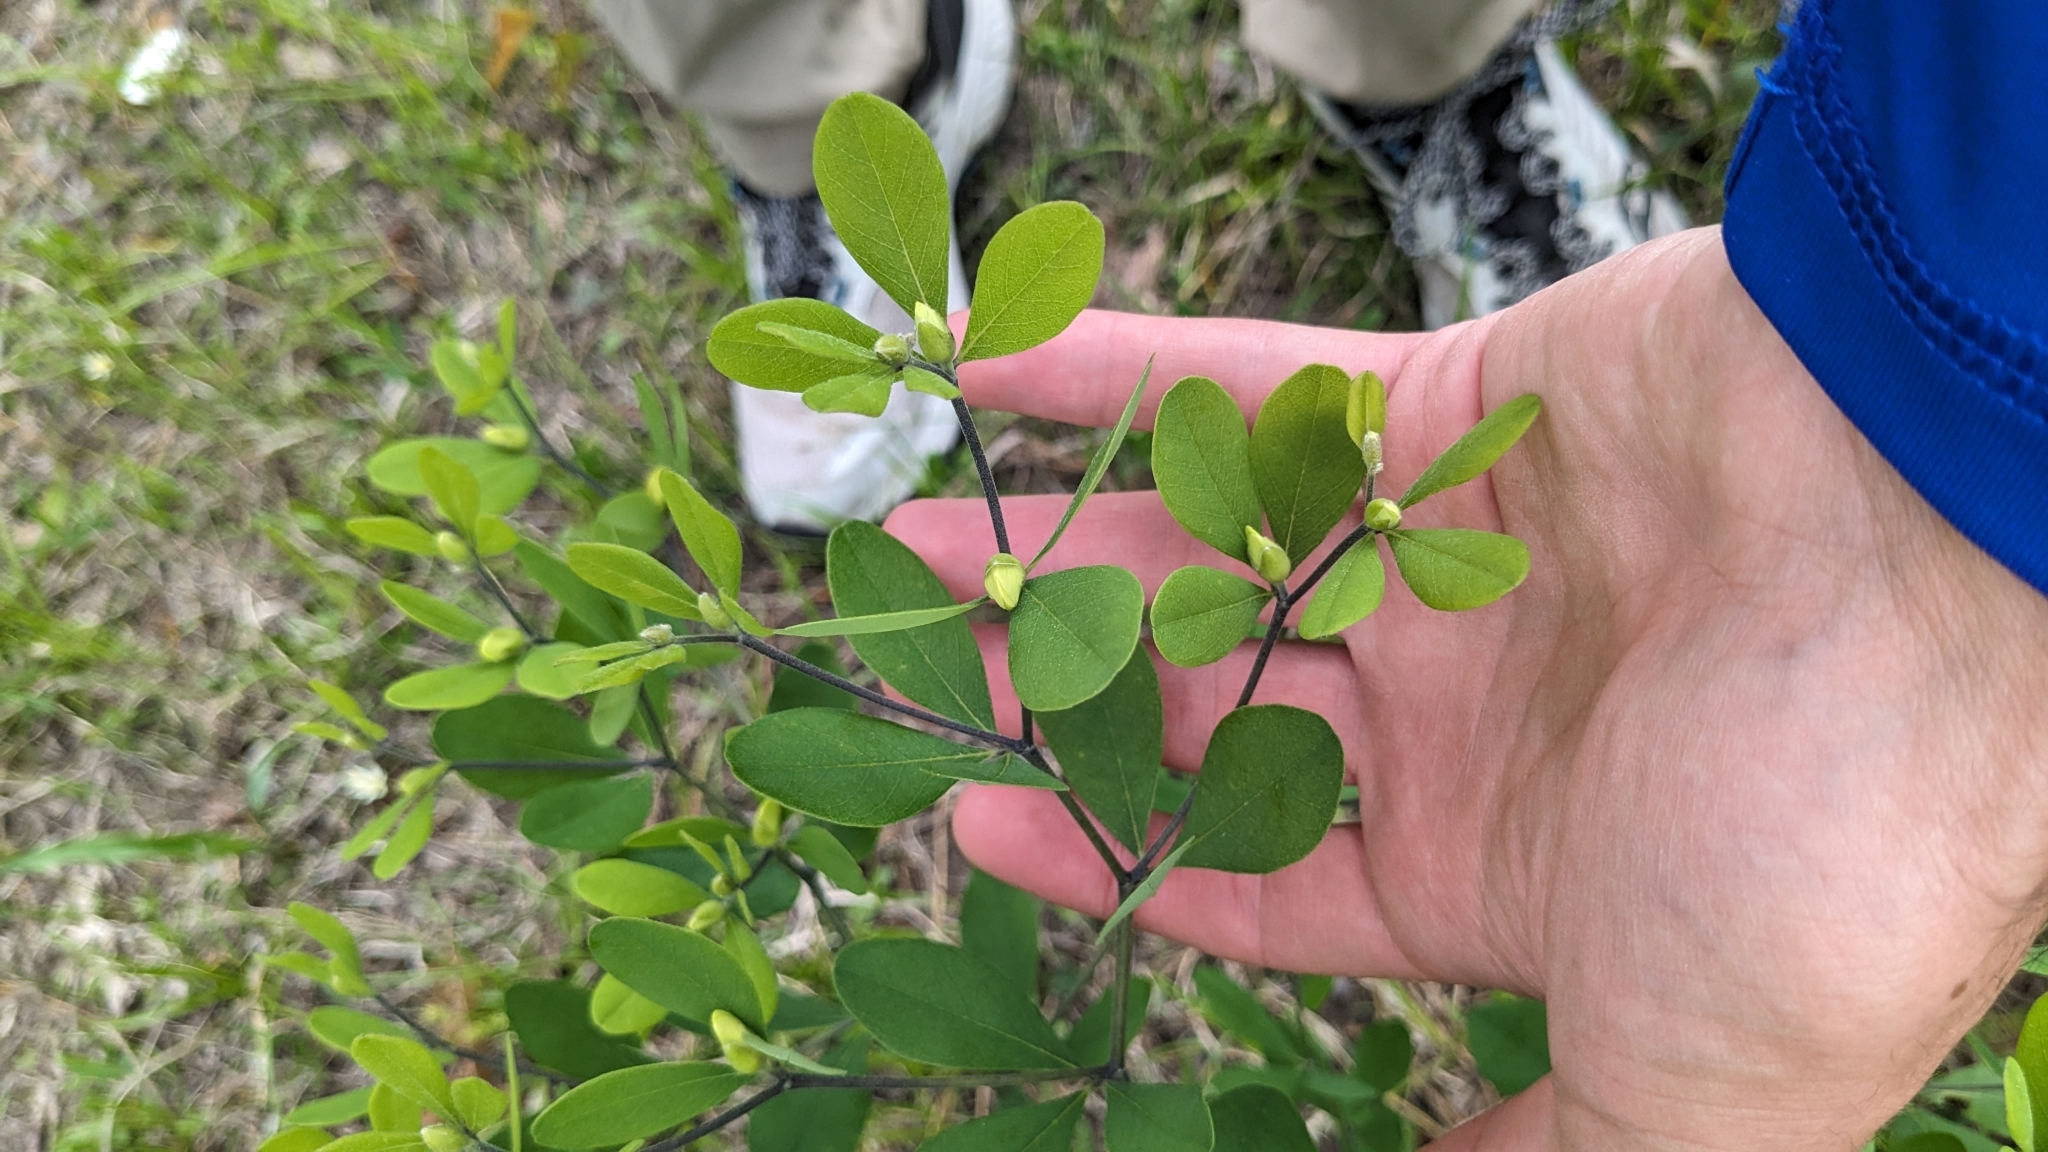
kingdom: Plantae
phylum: Tracheophyta
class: Magnoliopsida
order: Fabales
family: Fabaceae
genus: Baptisia
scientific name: Baptisia nuttalliana
